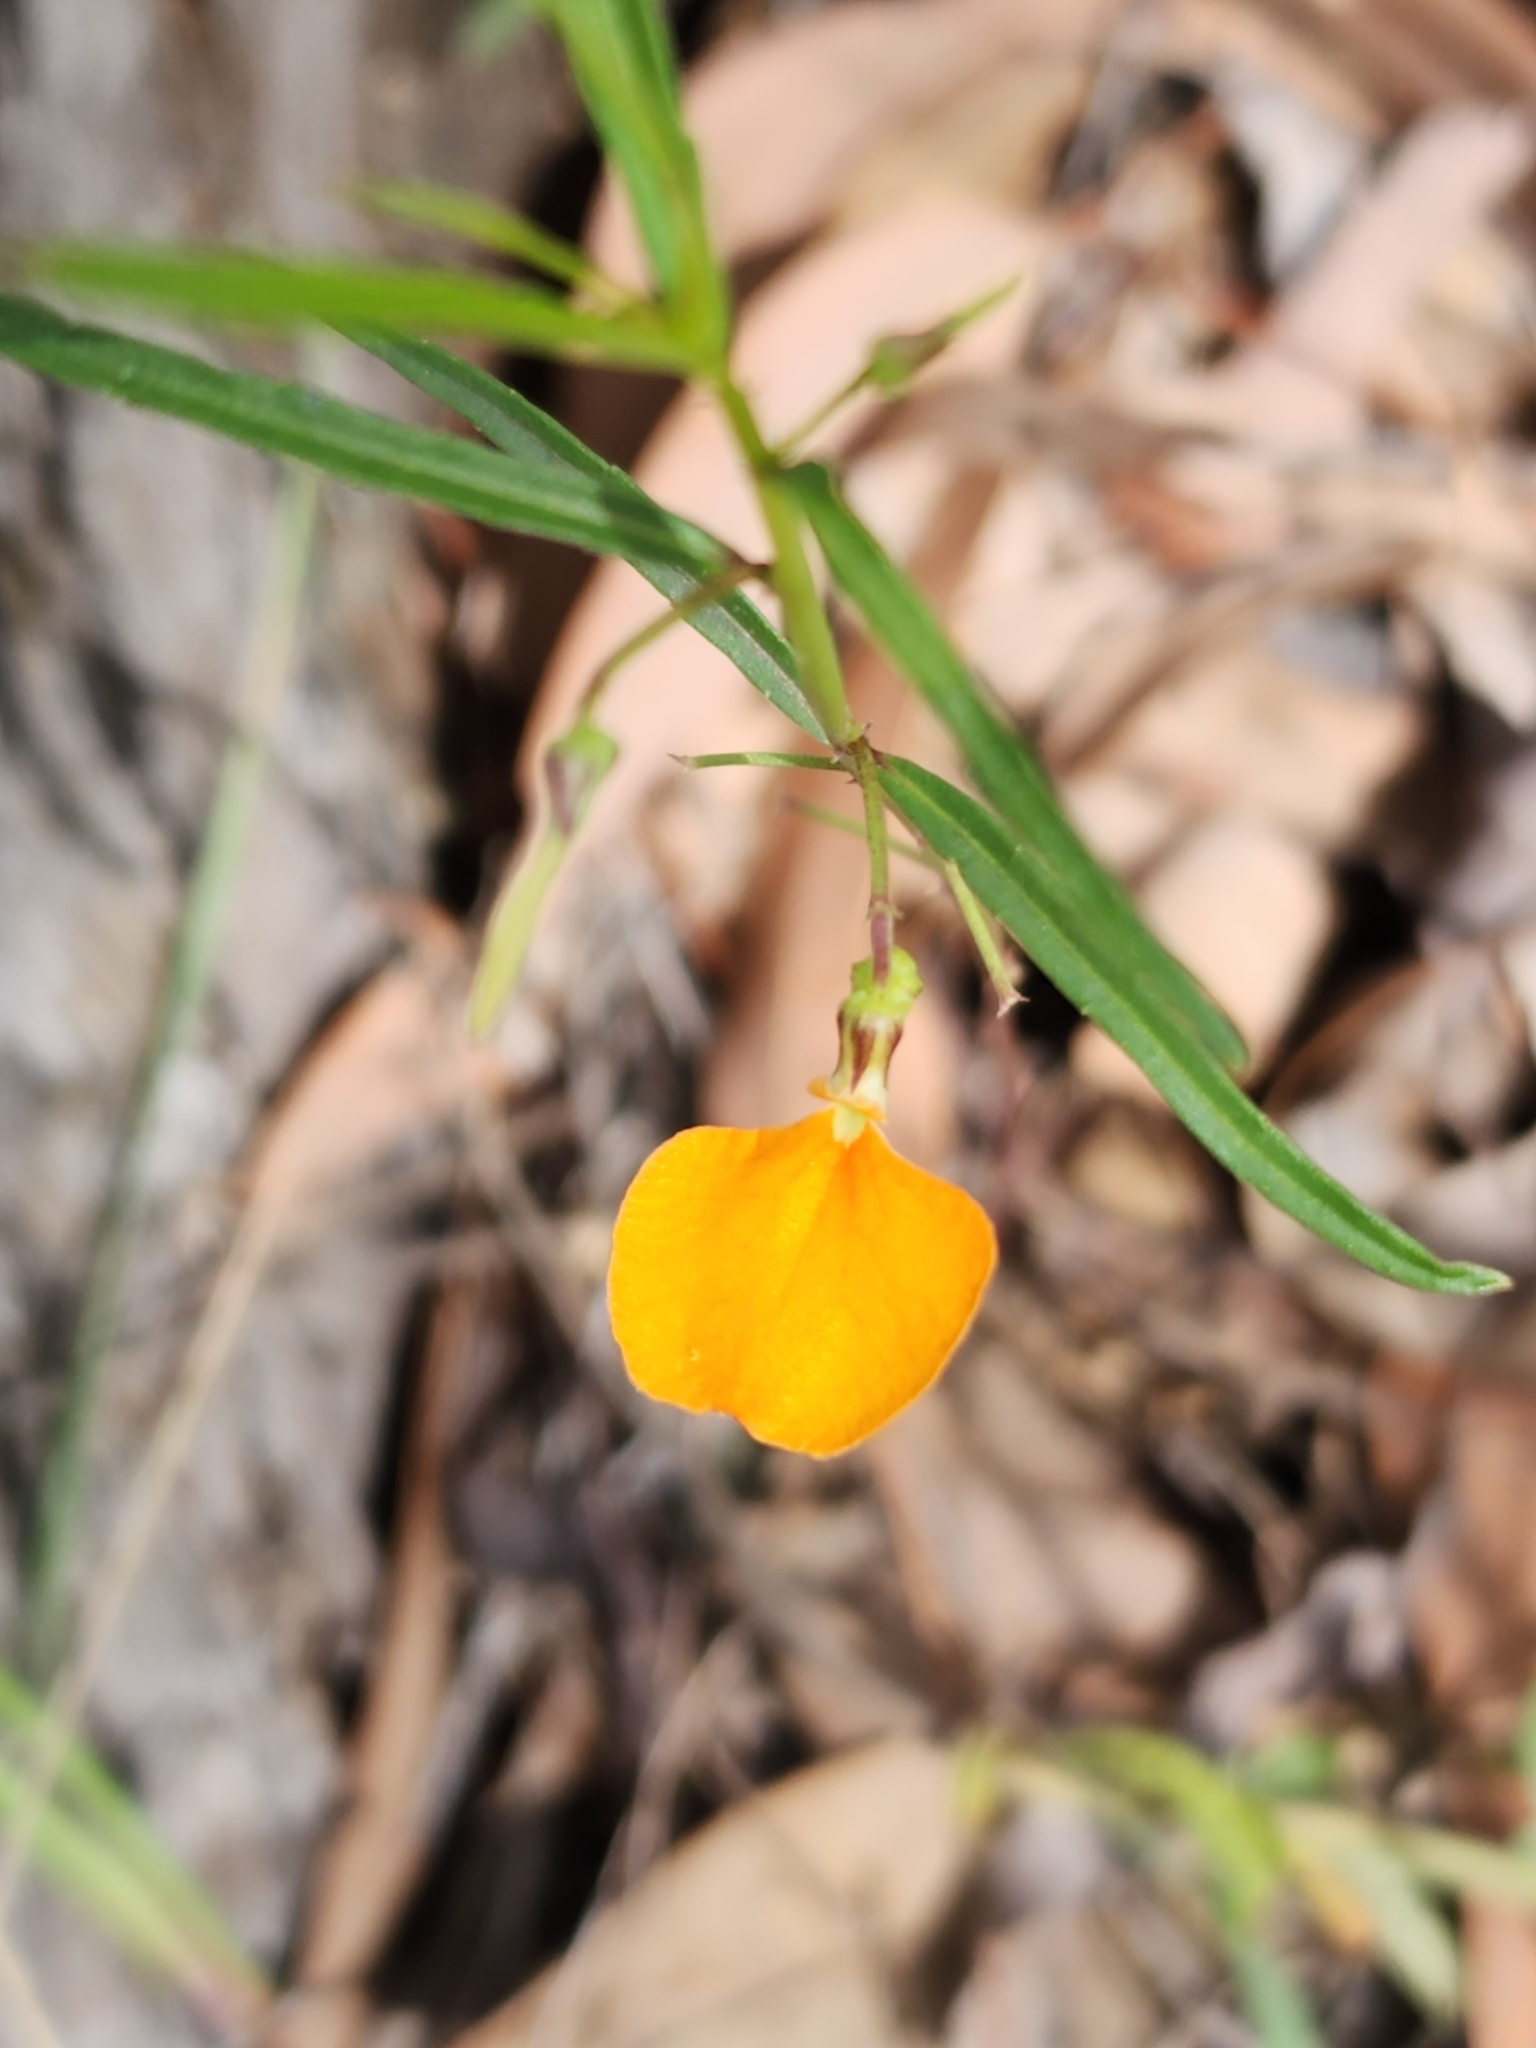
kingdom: Plantae
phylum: Tracheophyta
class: Magnoliopsida
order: Malpighiales
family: Violaceae
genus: Pigea
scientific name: Pigea stellarioides
